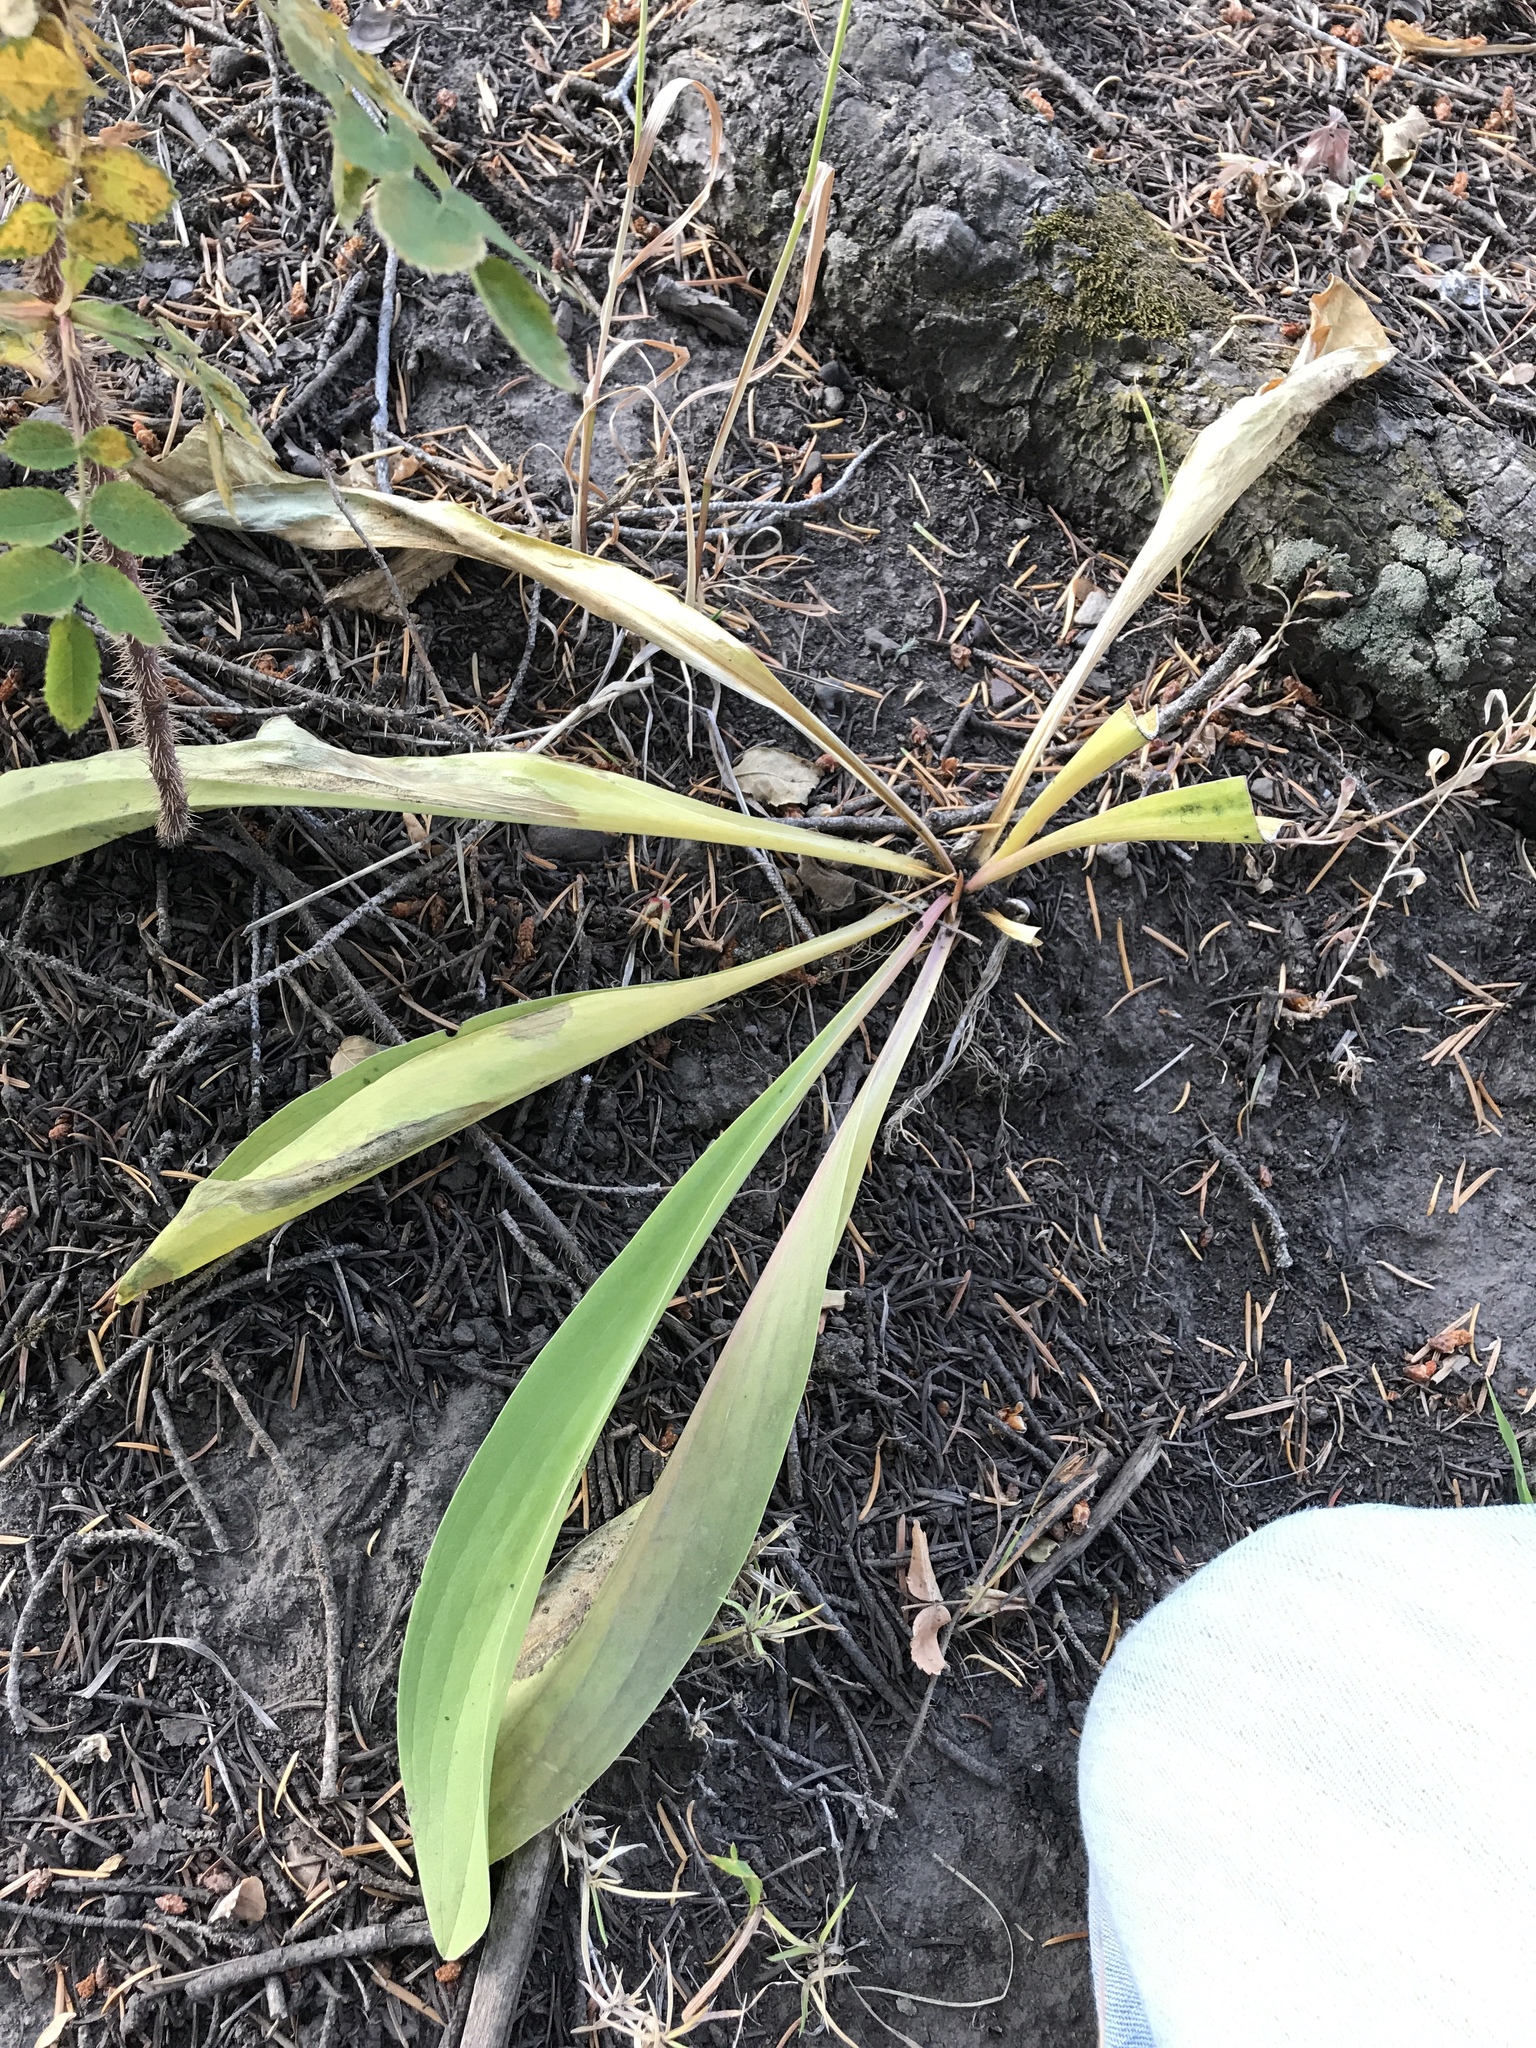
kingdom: Plantae
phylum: Tracheophyta
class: Magnoliopsida
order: Gentianales
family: Gentianaceae
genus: Frasera
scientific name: Frasera speciosa
